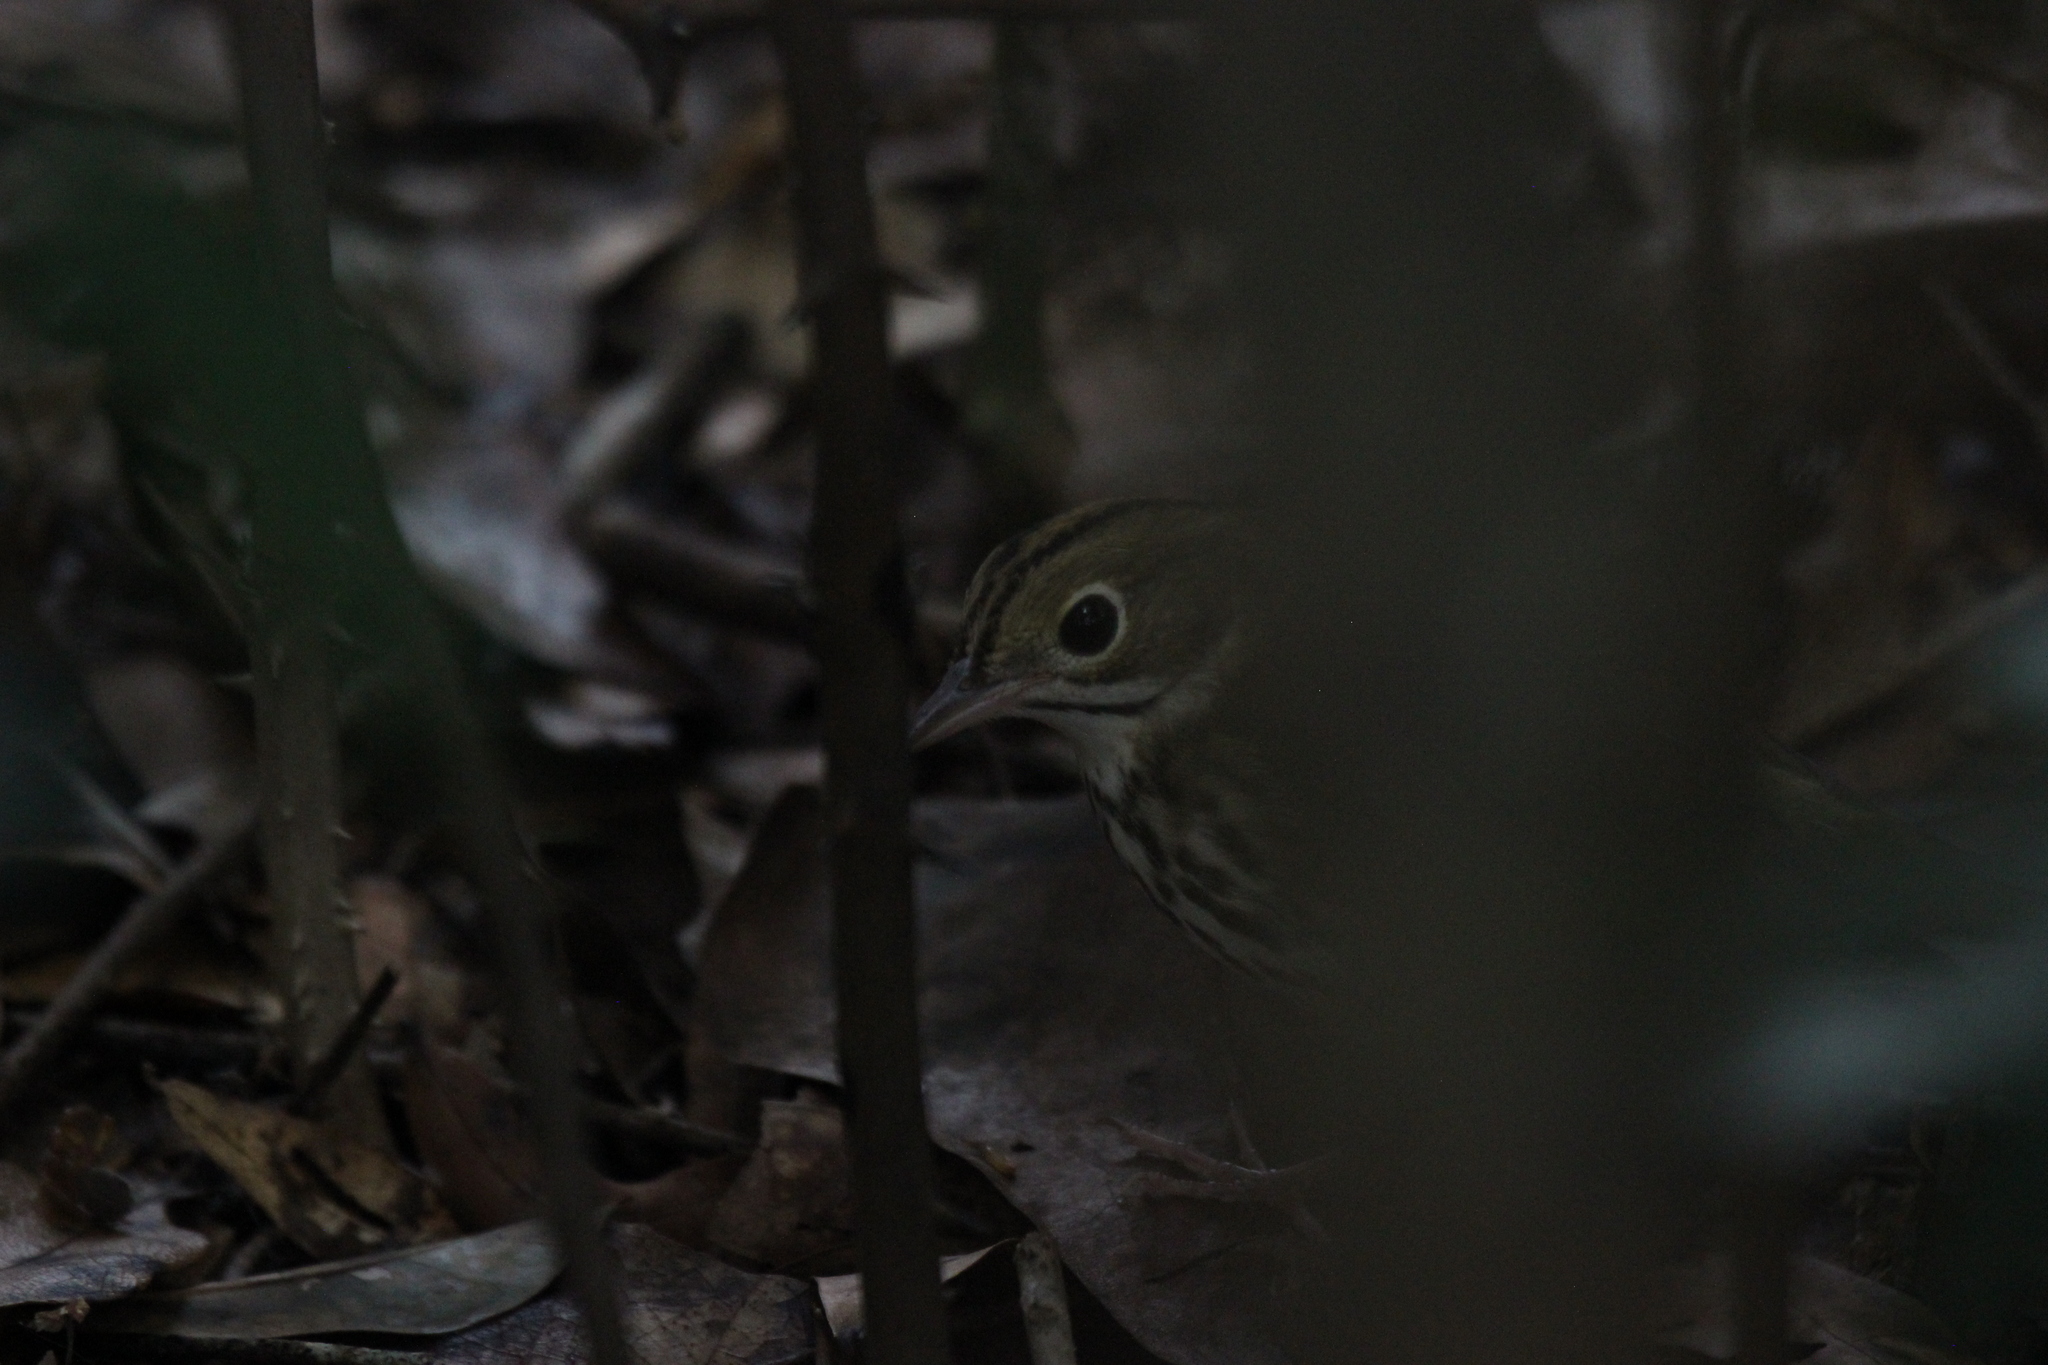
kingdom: Animalia
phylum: Chordata
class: Aves
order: Passeriformes
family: Parulidae
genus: Seiurus
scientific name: Seiurus aurocapilla
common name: Ovenbird
